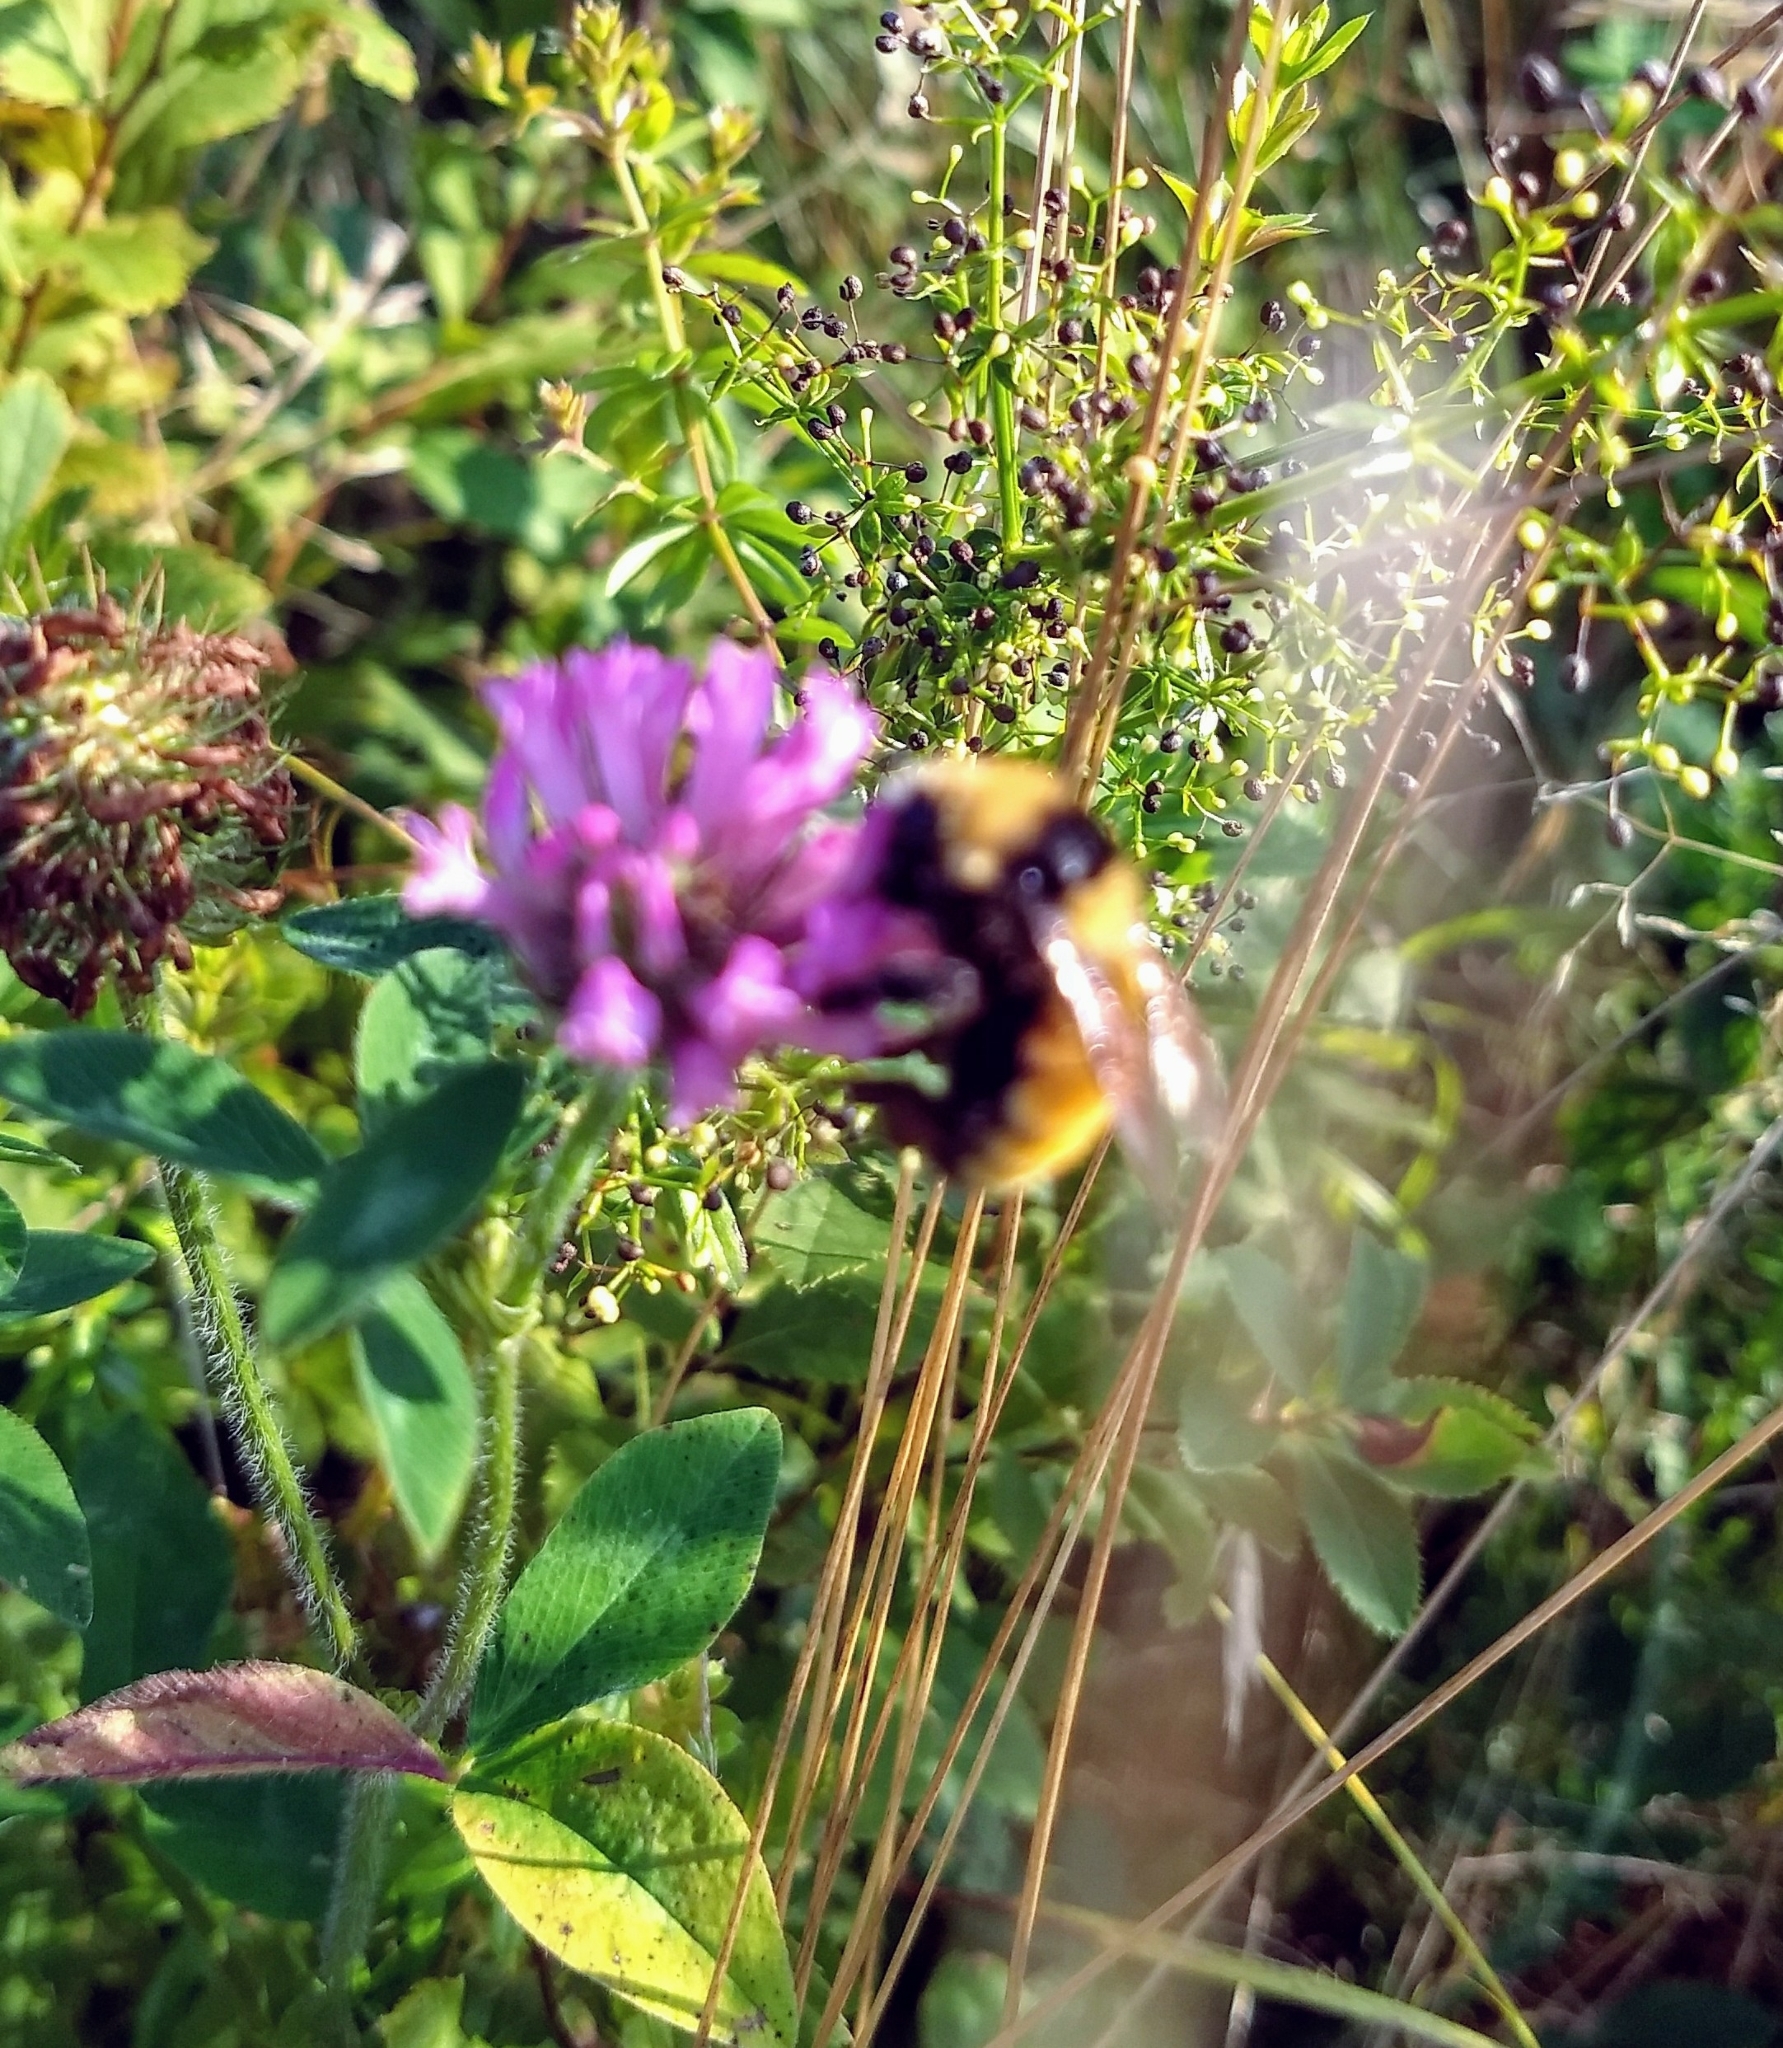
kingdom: Animalia
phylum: Arthropoda
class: Insecta
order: Hymenoptera
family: Apidae
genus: Bombus
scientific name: Bombus borealis
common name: Northern amber bumble bee
